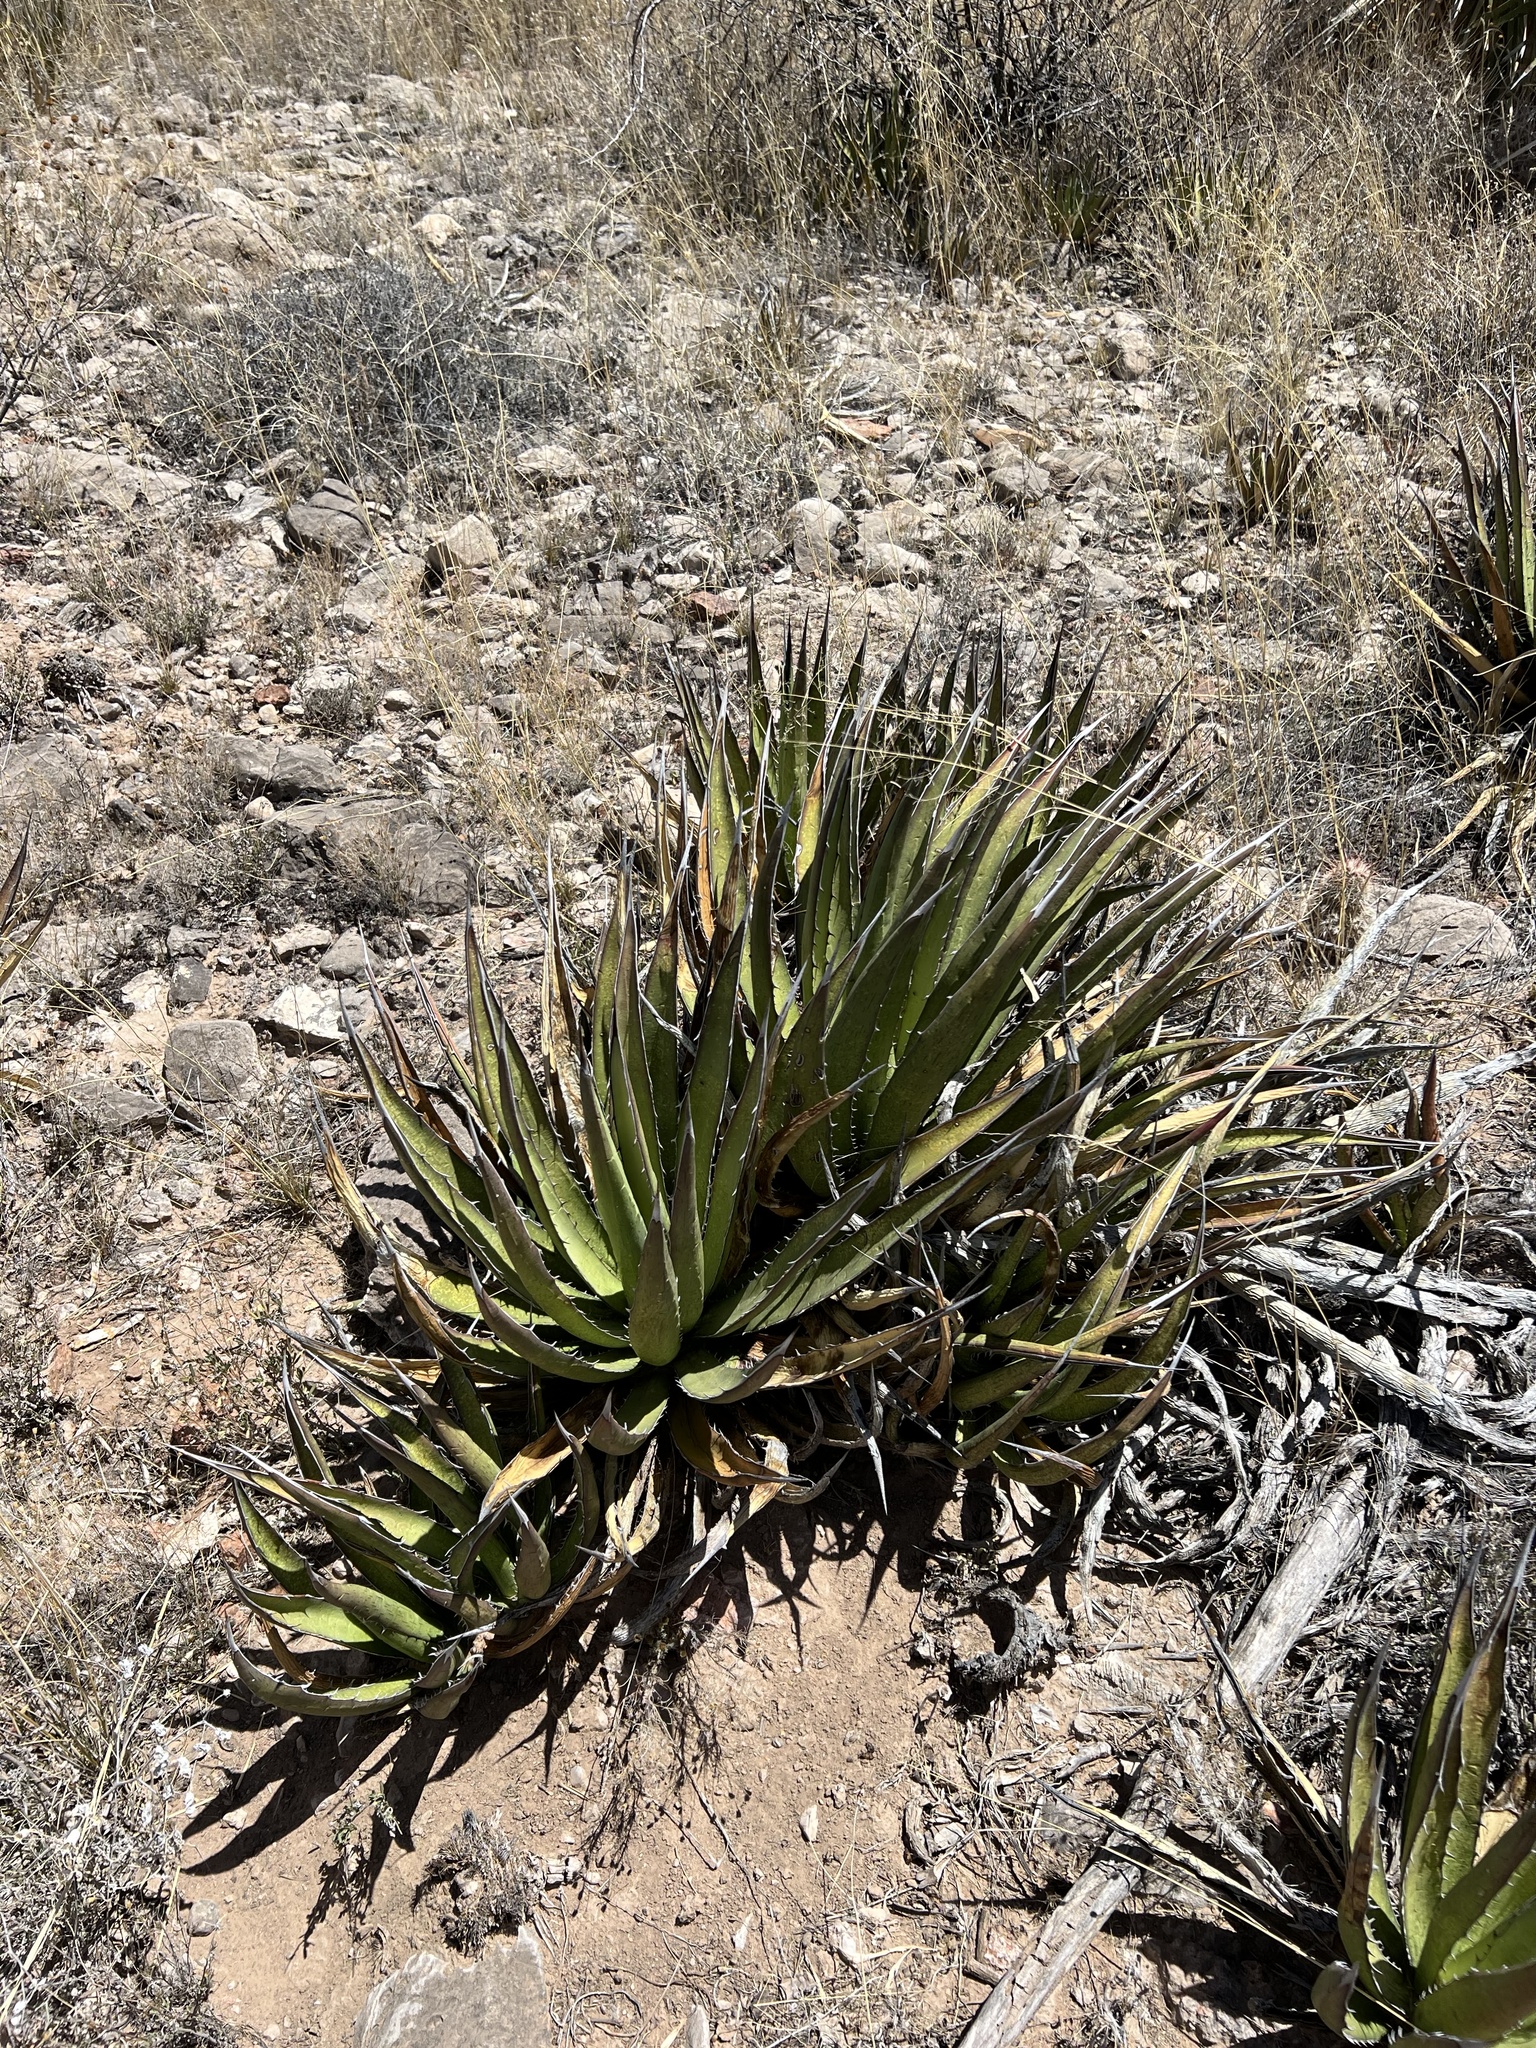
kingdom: Plantae
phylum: Tracheophyta
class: Liliopsida
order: Asparagales
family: Asparagaceae
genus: Agave
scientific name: Agave lechuguilla
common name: Lecheguilla agave
